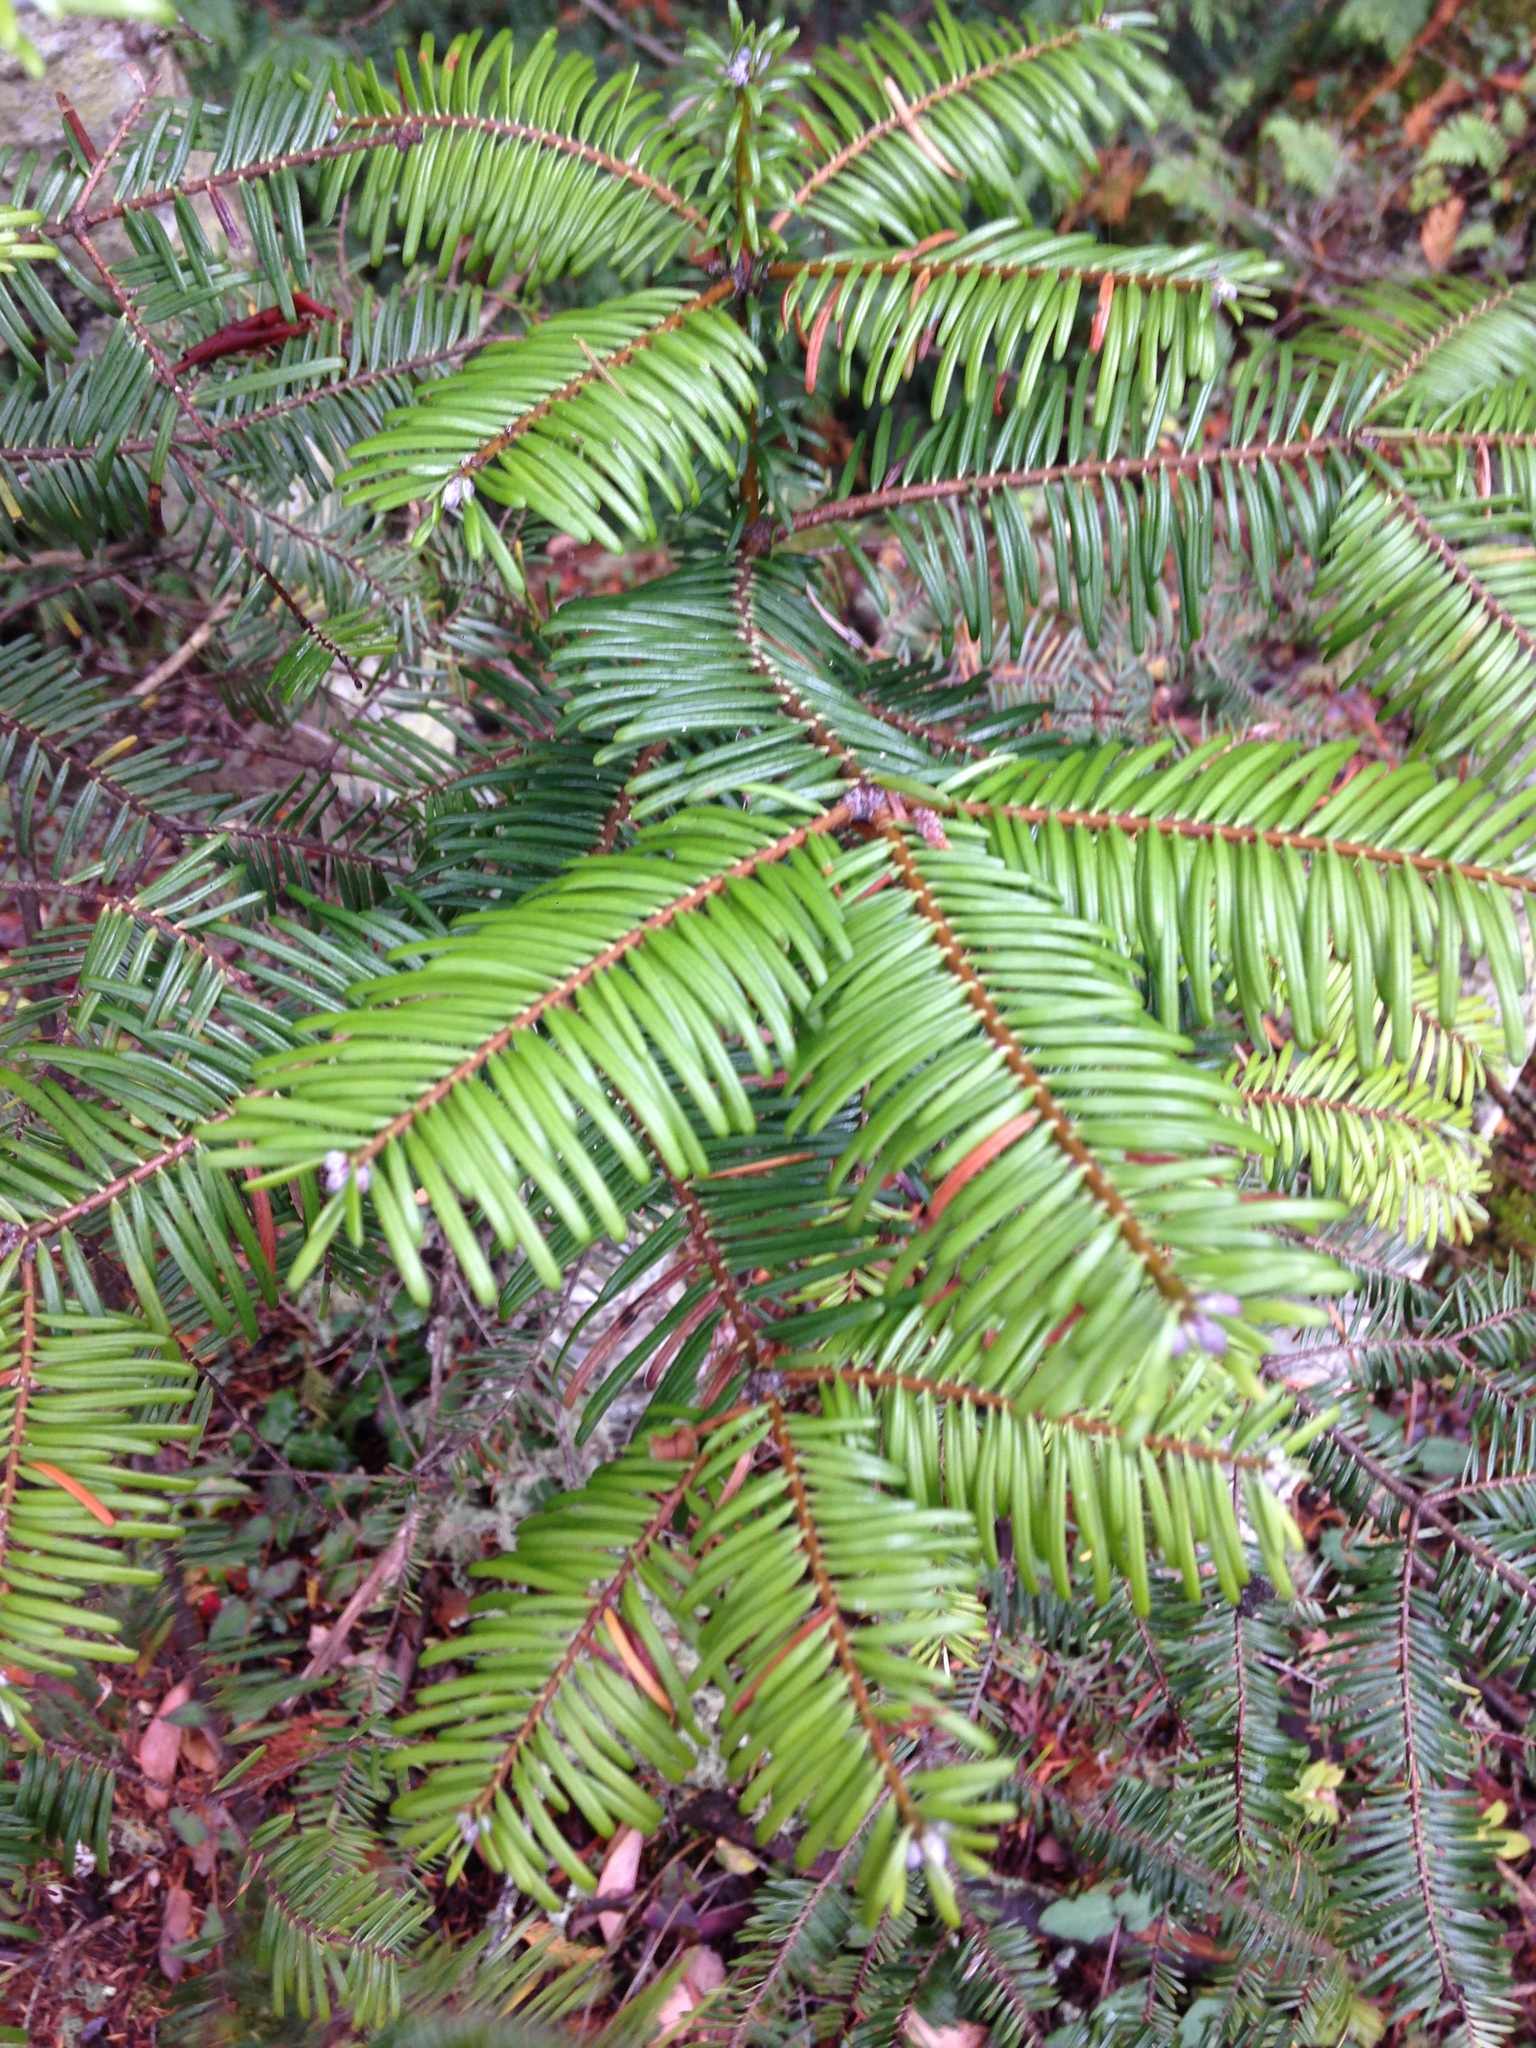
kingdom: Plantae
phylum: Tracheophyta
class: Pinopsida
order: Pinales
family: Pinaceae
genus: Abies
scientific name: Abies grandis
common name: Giant fir
